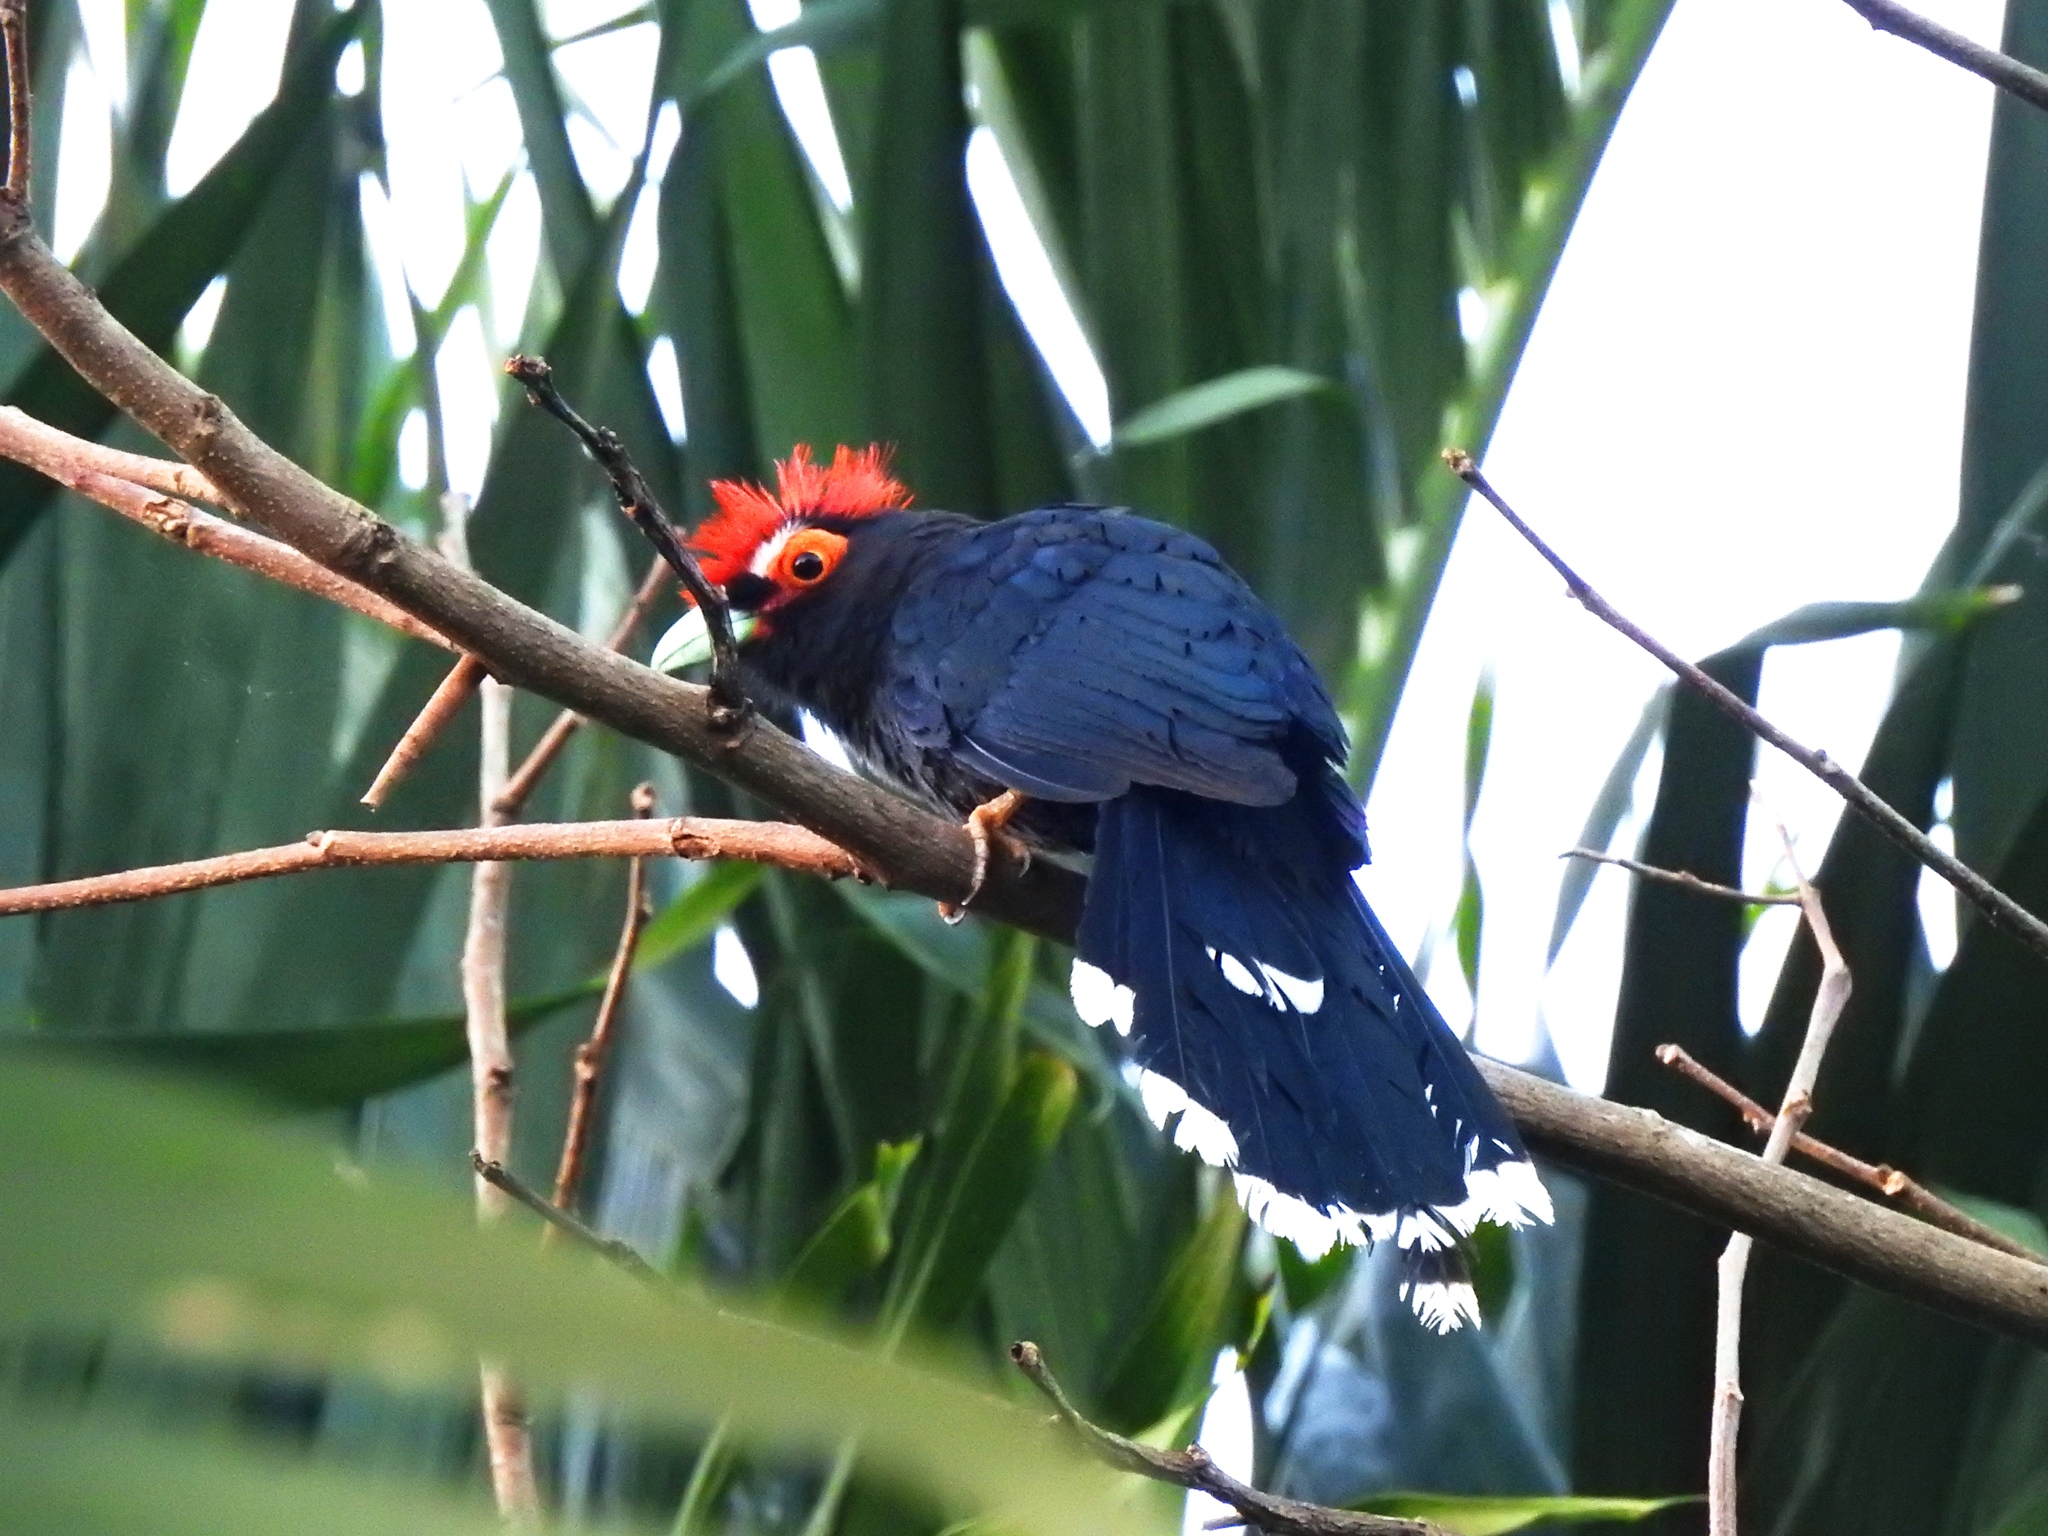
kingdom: Animalia
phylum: Chordata
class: Aves
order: Cuculiformes
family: Cuculidae
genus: Dasylophus
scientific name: Dasylophus superciliosus
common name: Rough-crested malkoha
